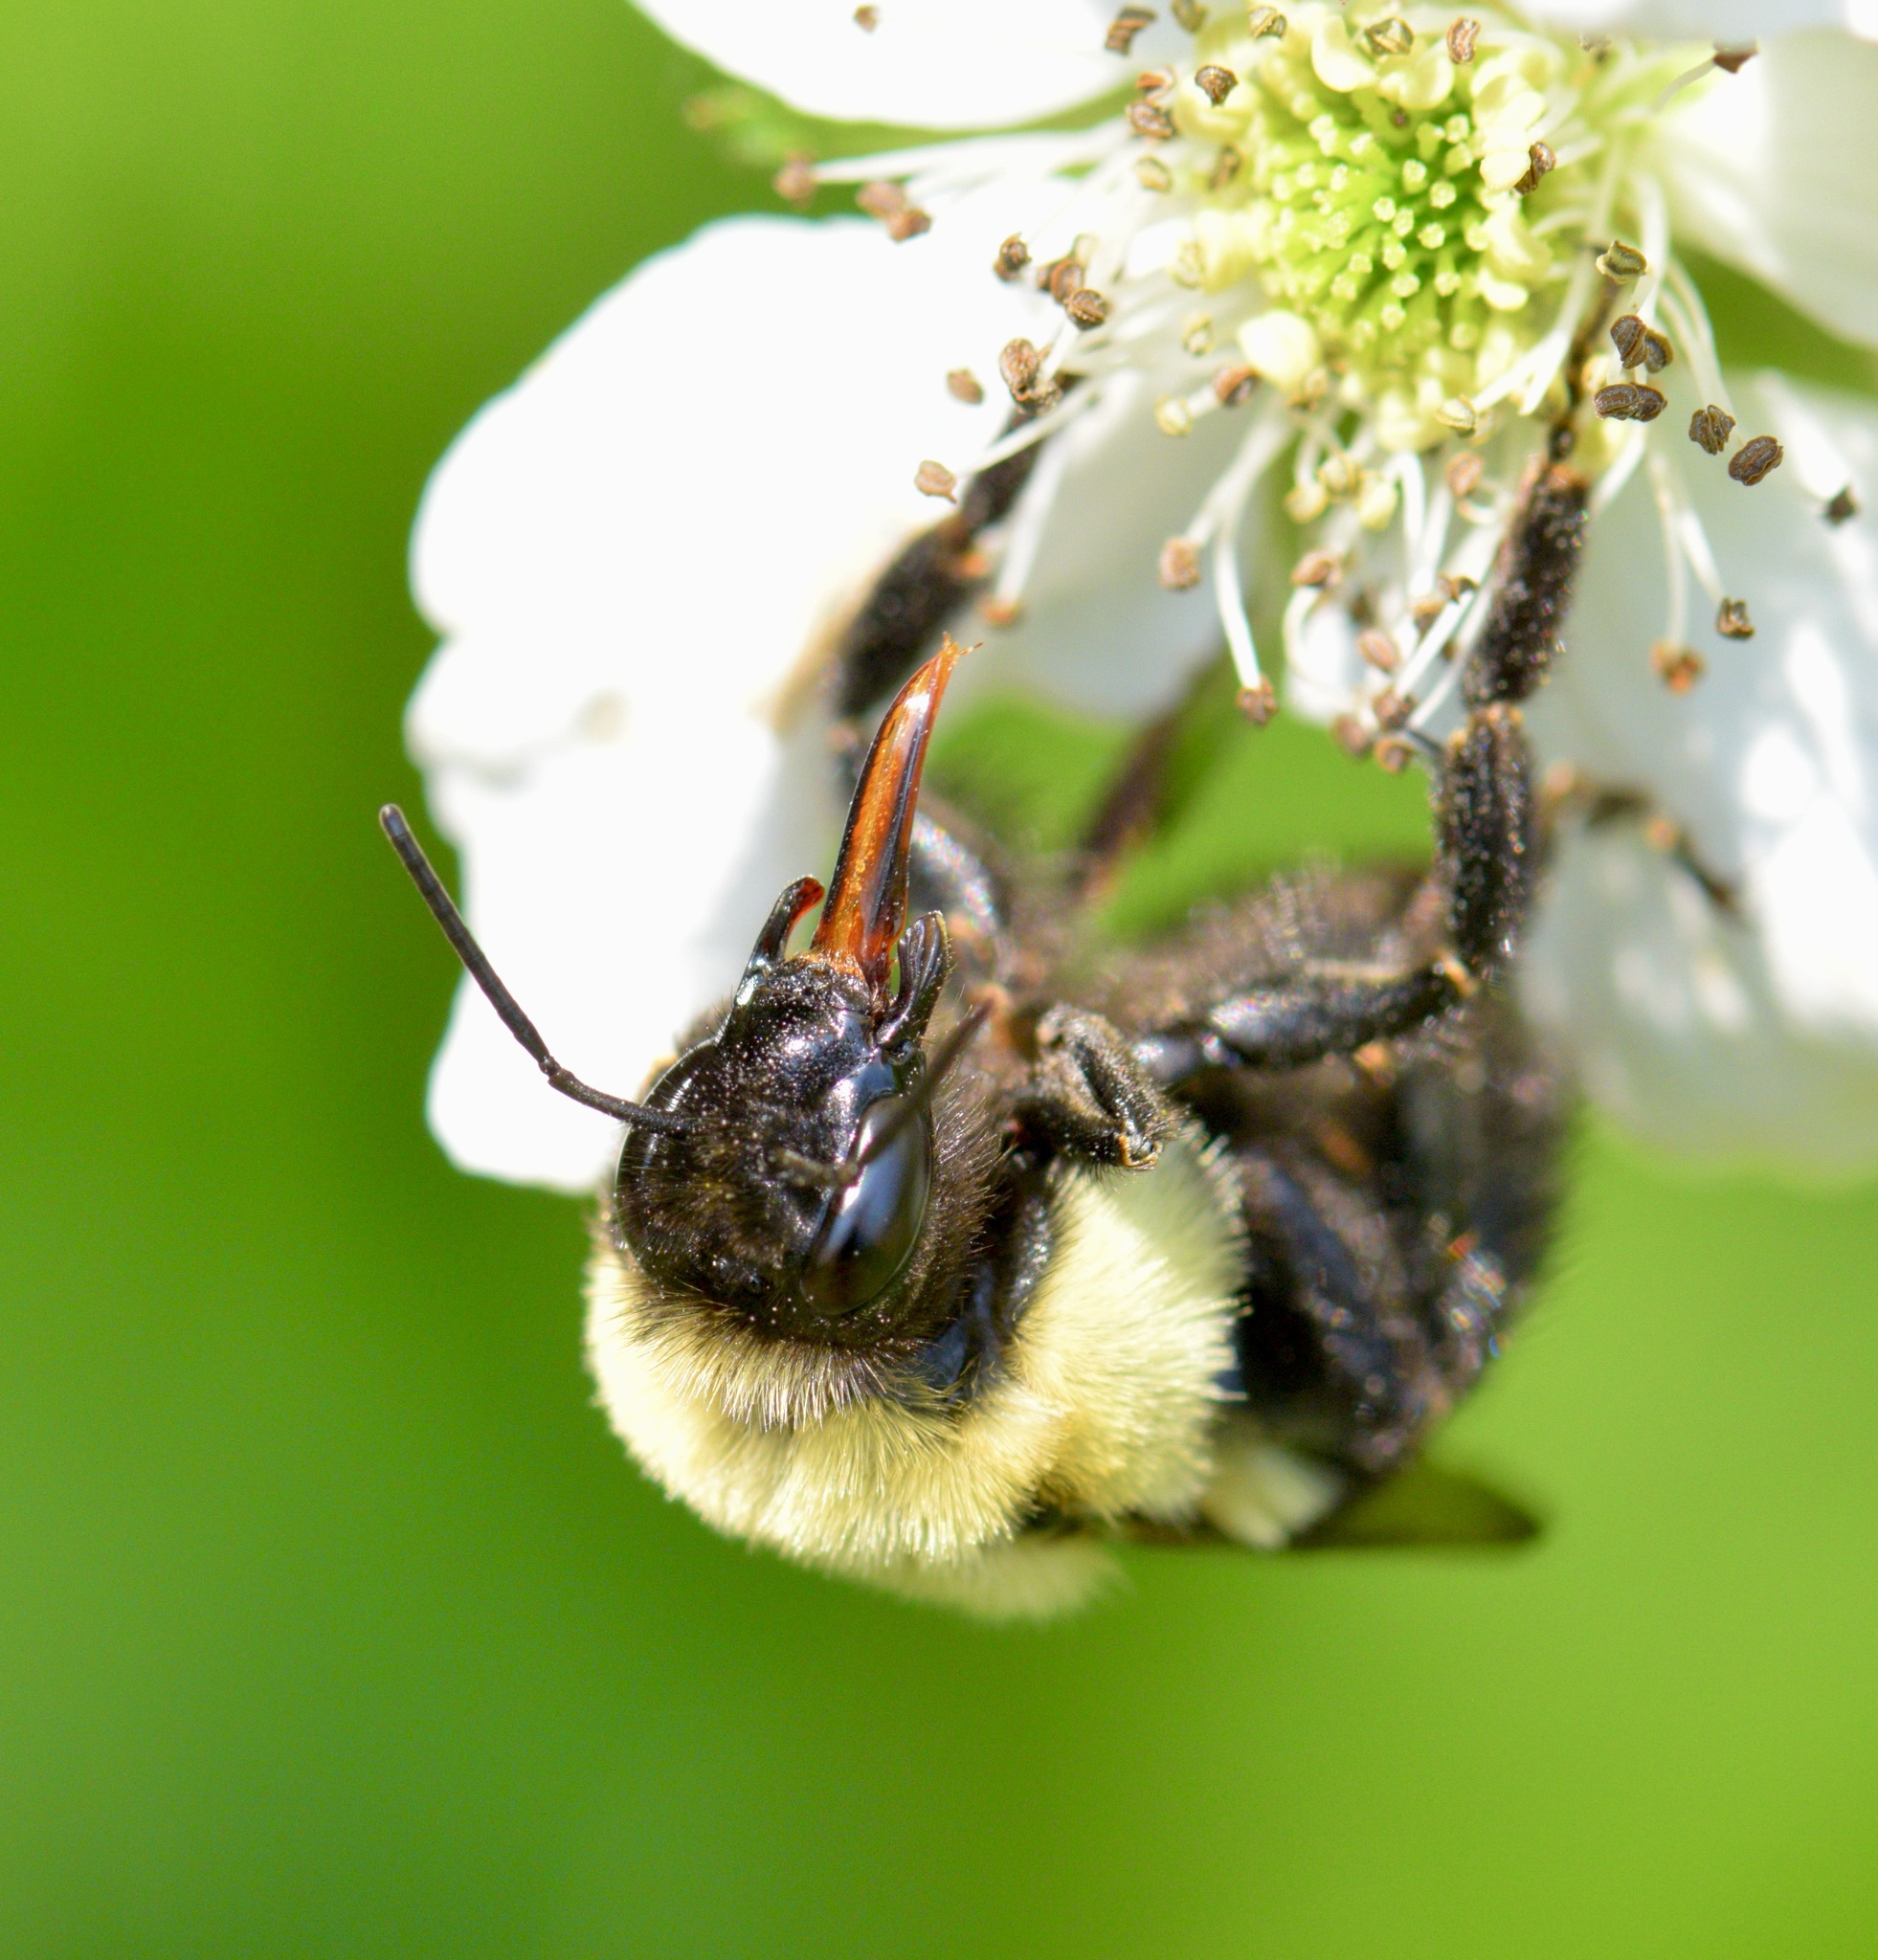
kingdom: Animalia
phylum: Arthropoda
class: Insecta
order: Hymenoptera
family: Apidae
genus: Bombus
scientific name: Bombus impatiens
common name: Common eastern bumble bee
